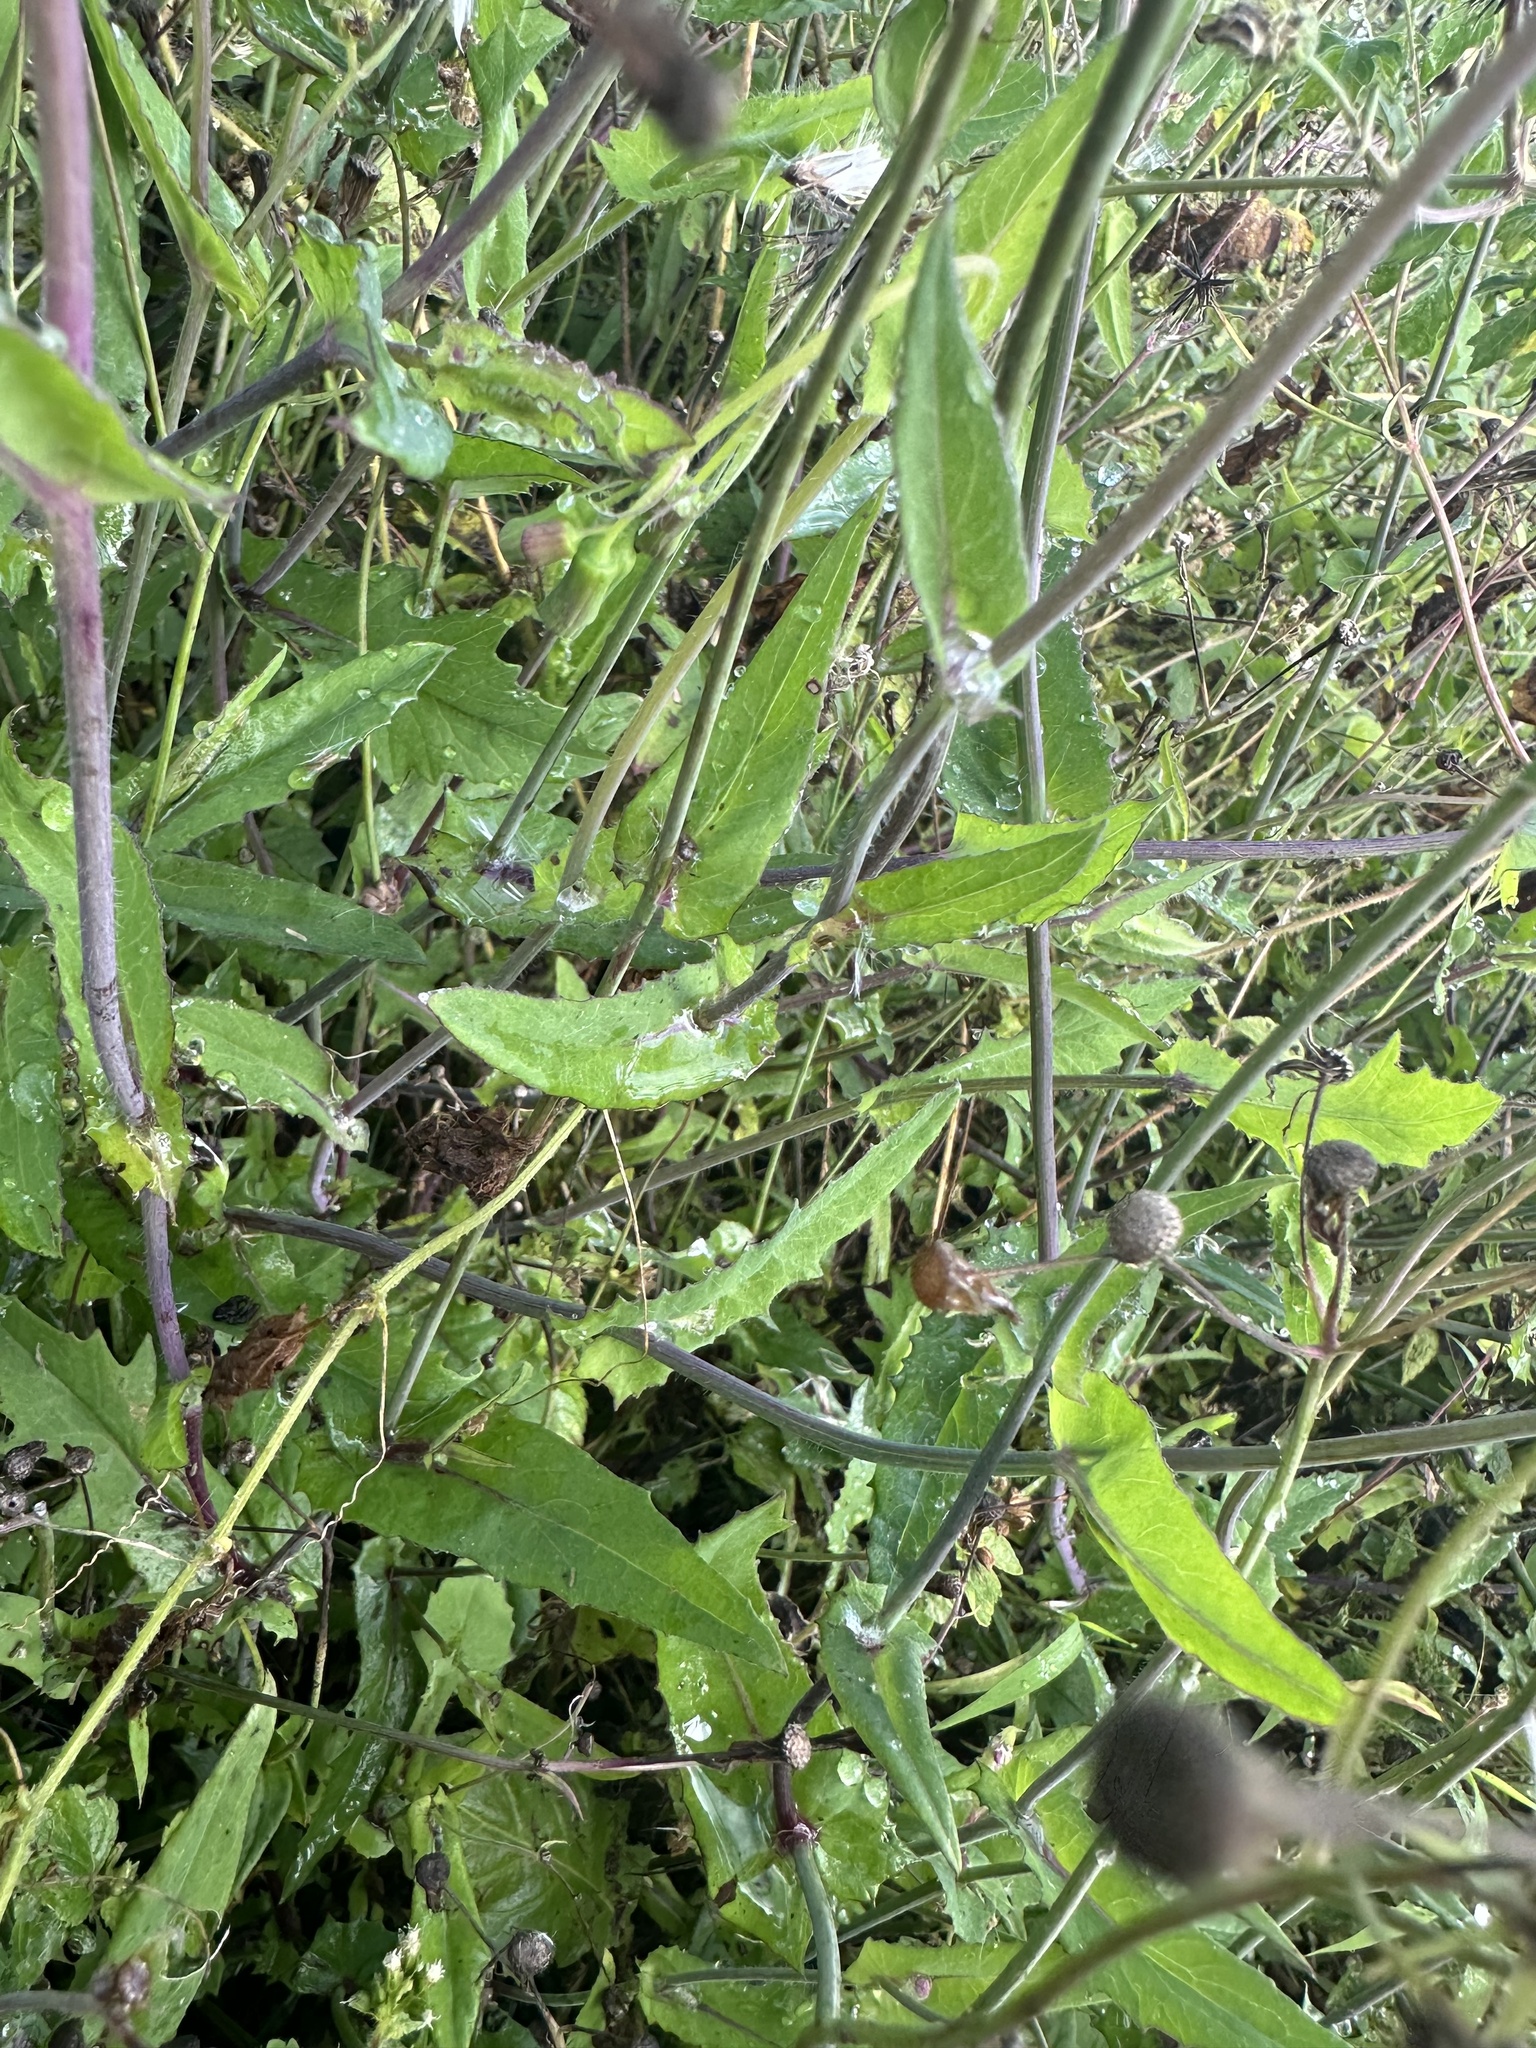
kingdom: Plantae
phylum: Tracheophyta
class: Magnoliopsida
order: Asterales
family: Asteraceae
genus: Emilia
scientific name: Emilia sonchifolia
